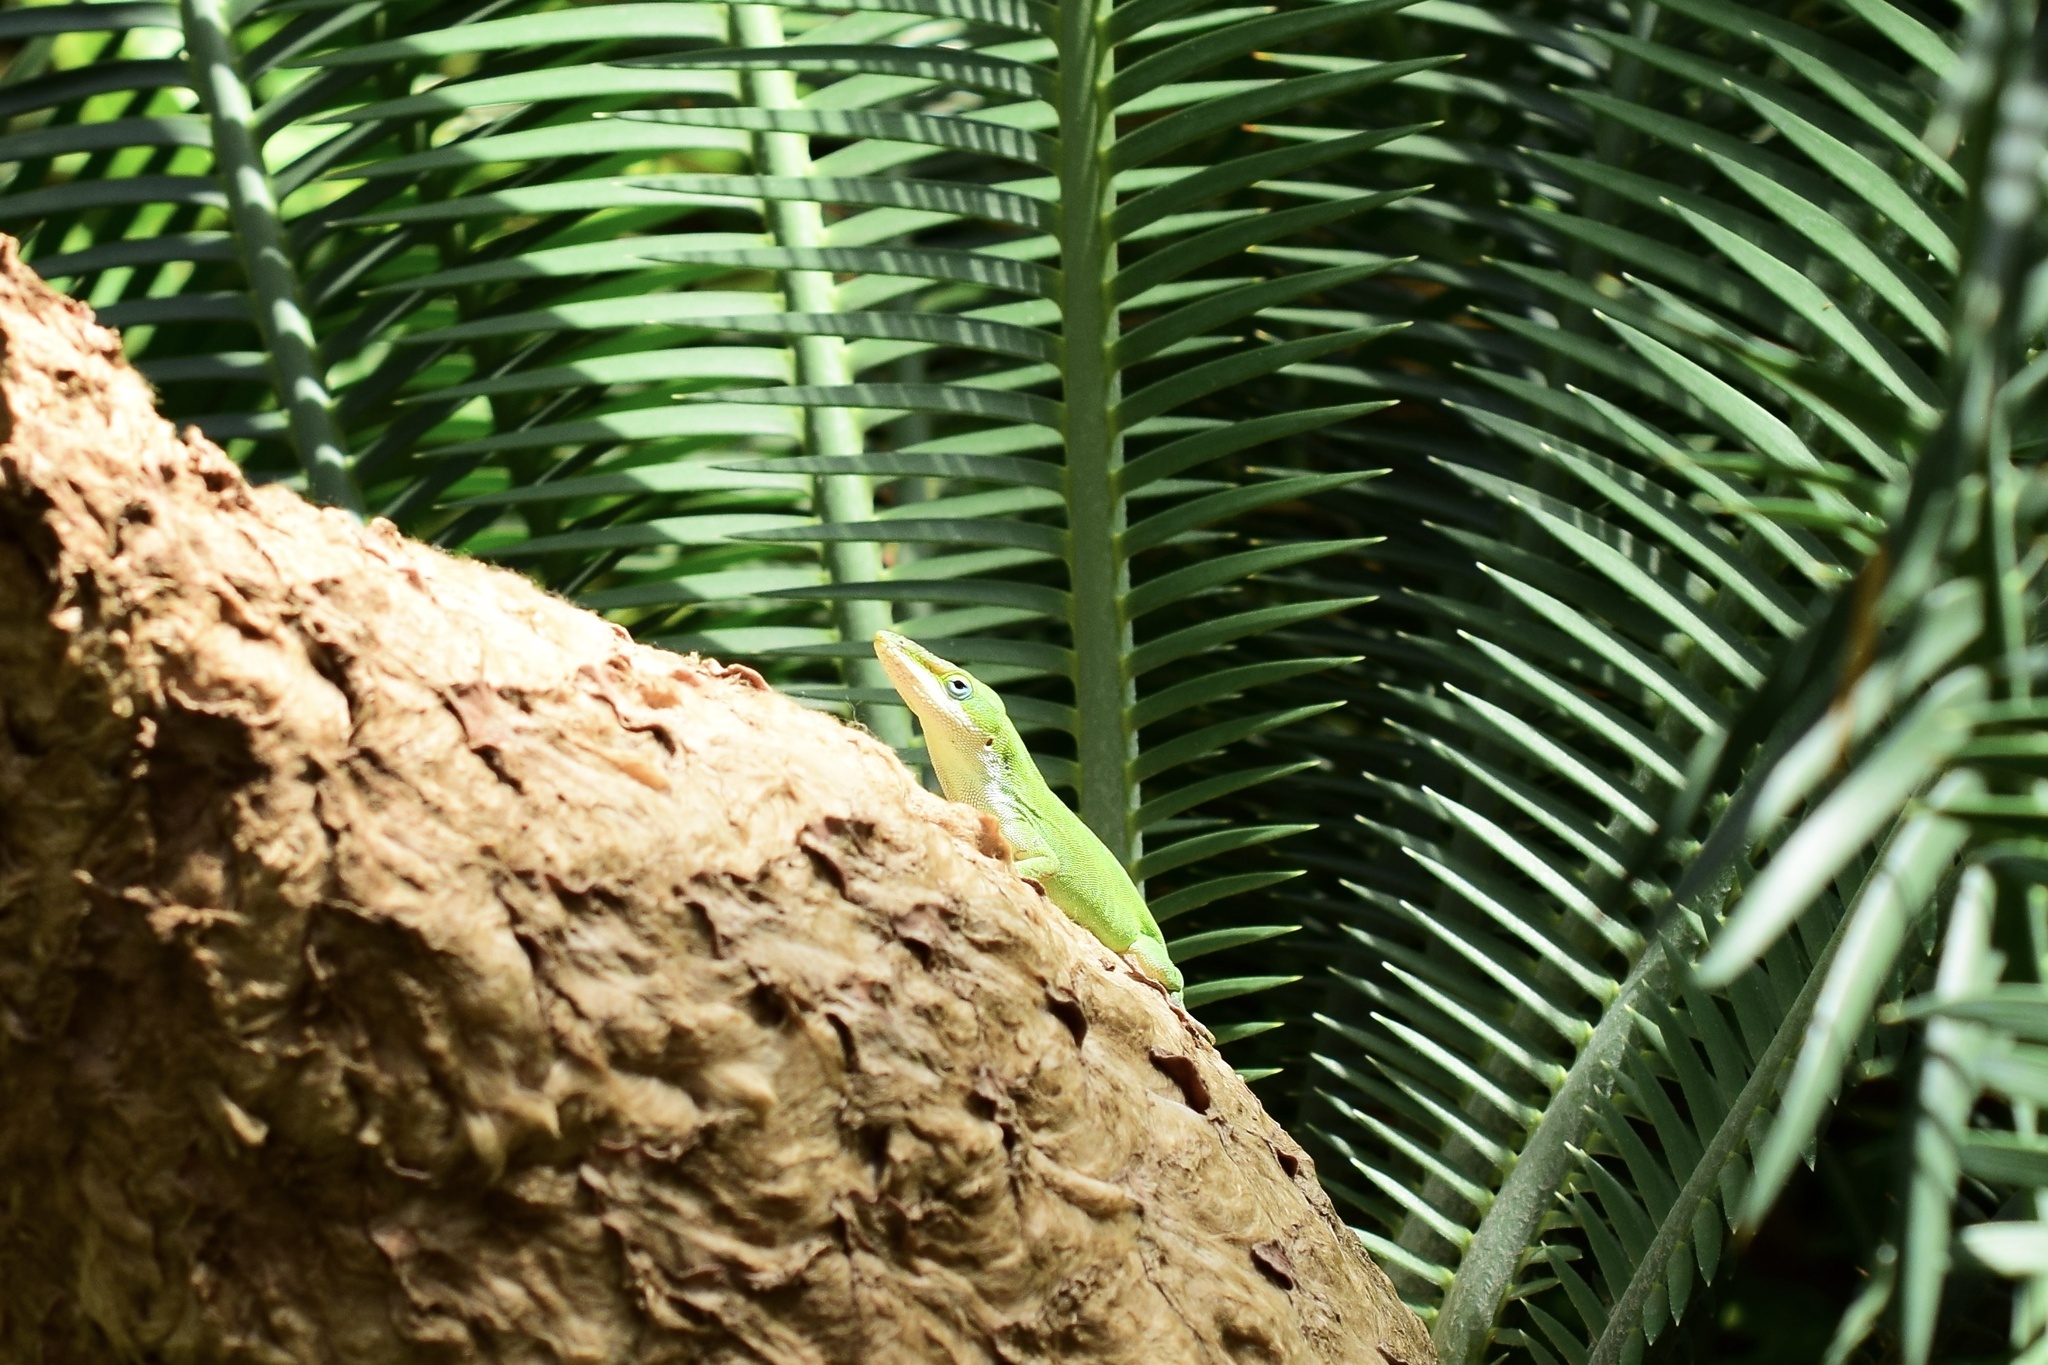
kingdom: Animalia
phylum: Chordata
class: Squamata
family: Dactyloidae
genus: Anolis
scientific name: Anolis carolinensis
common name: Green anole
